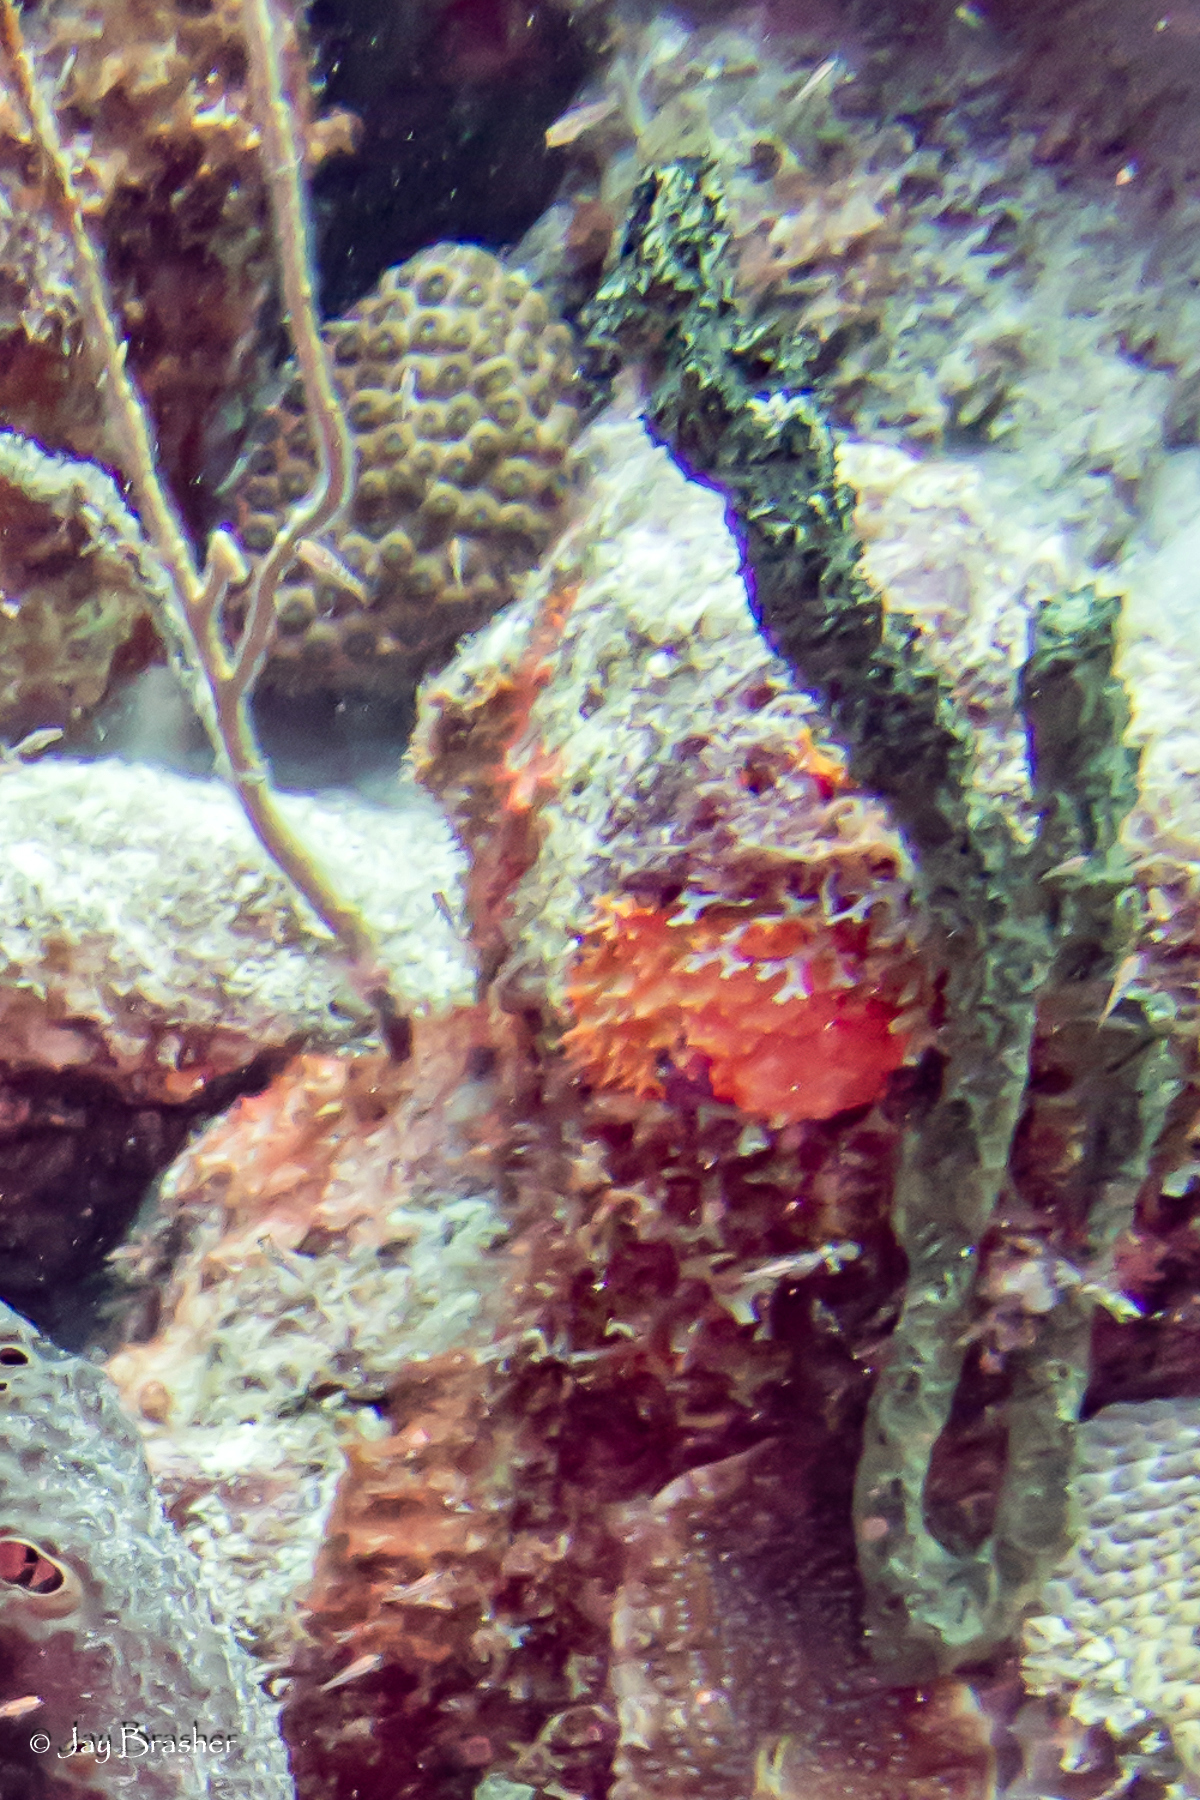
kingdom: Animalia
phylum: Porifera
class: Demospongiae
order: Poecilosclerida
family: Iotrochotidae
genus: Iotrochota
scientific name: Iotrochota birotulata
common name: Purple bleeding sponge
